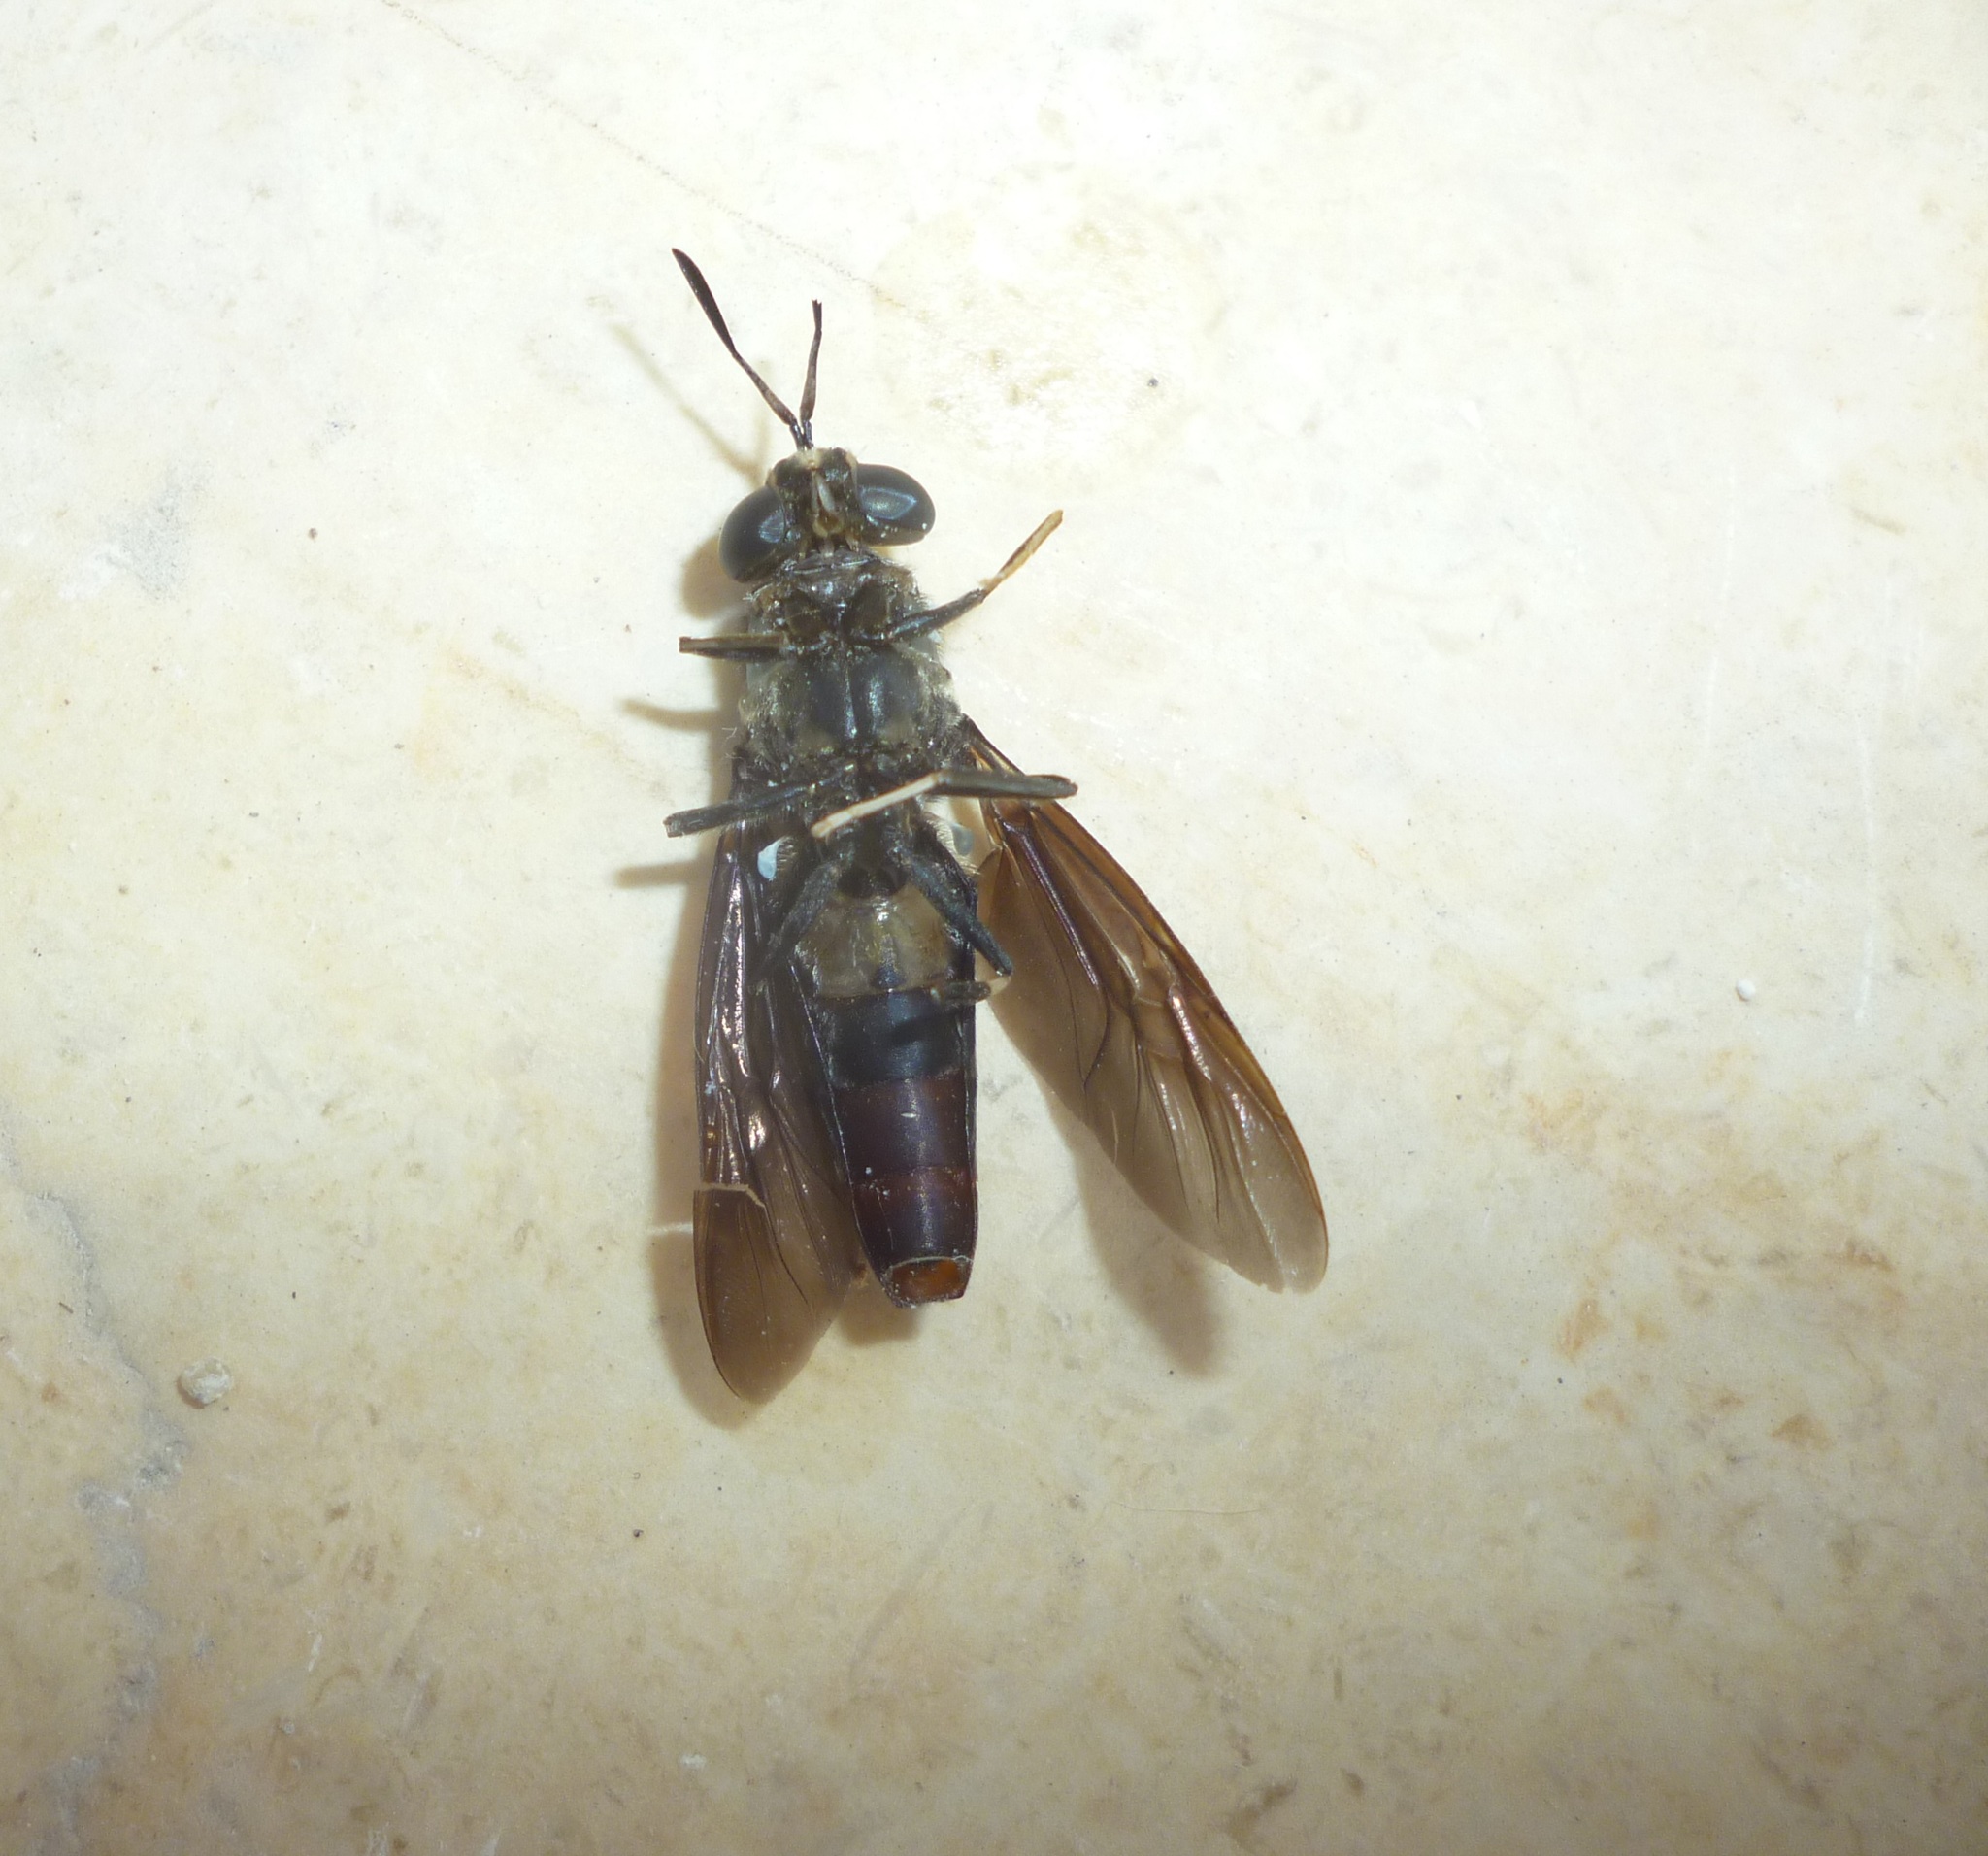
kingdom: Animalia
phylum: Arthropoda
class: Insecta
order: Diptera
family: Stratiomyidae
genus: Hermetia
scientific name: Hermetia illucens
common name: Black soldier fly
